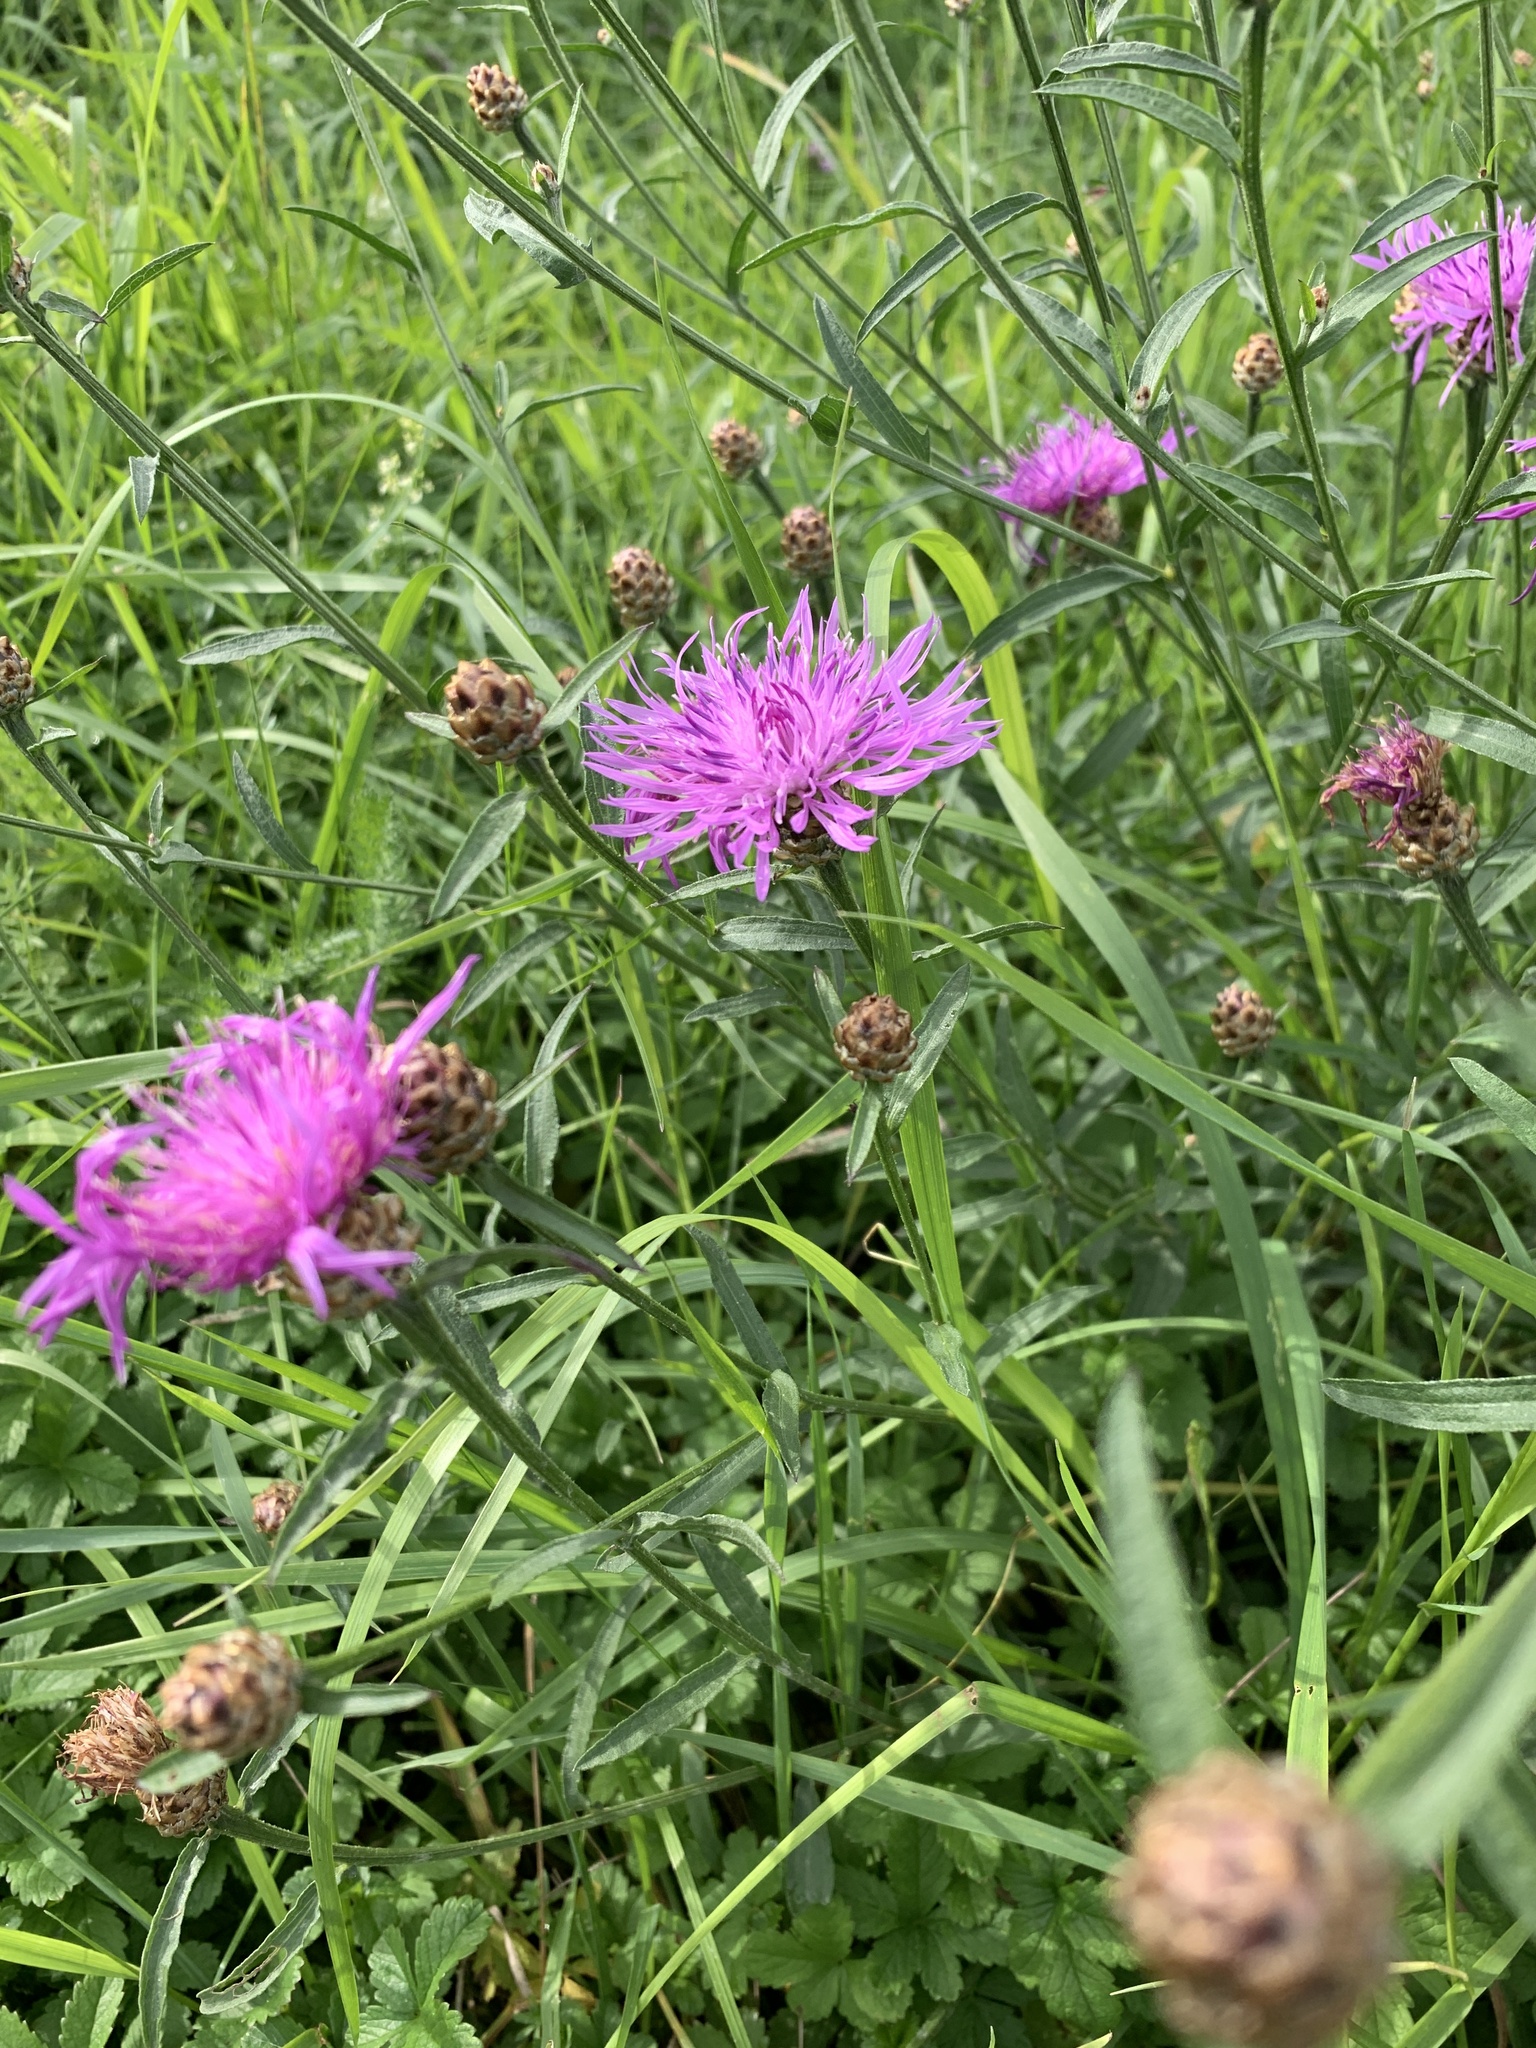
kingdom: Plantae
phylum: Tracheophyta
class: Magnoliopsida
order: Asterales
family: Asteraceae
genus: Centaurea
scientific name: Centaurea jacea
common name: Brown knapweed
